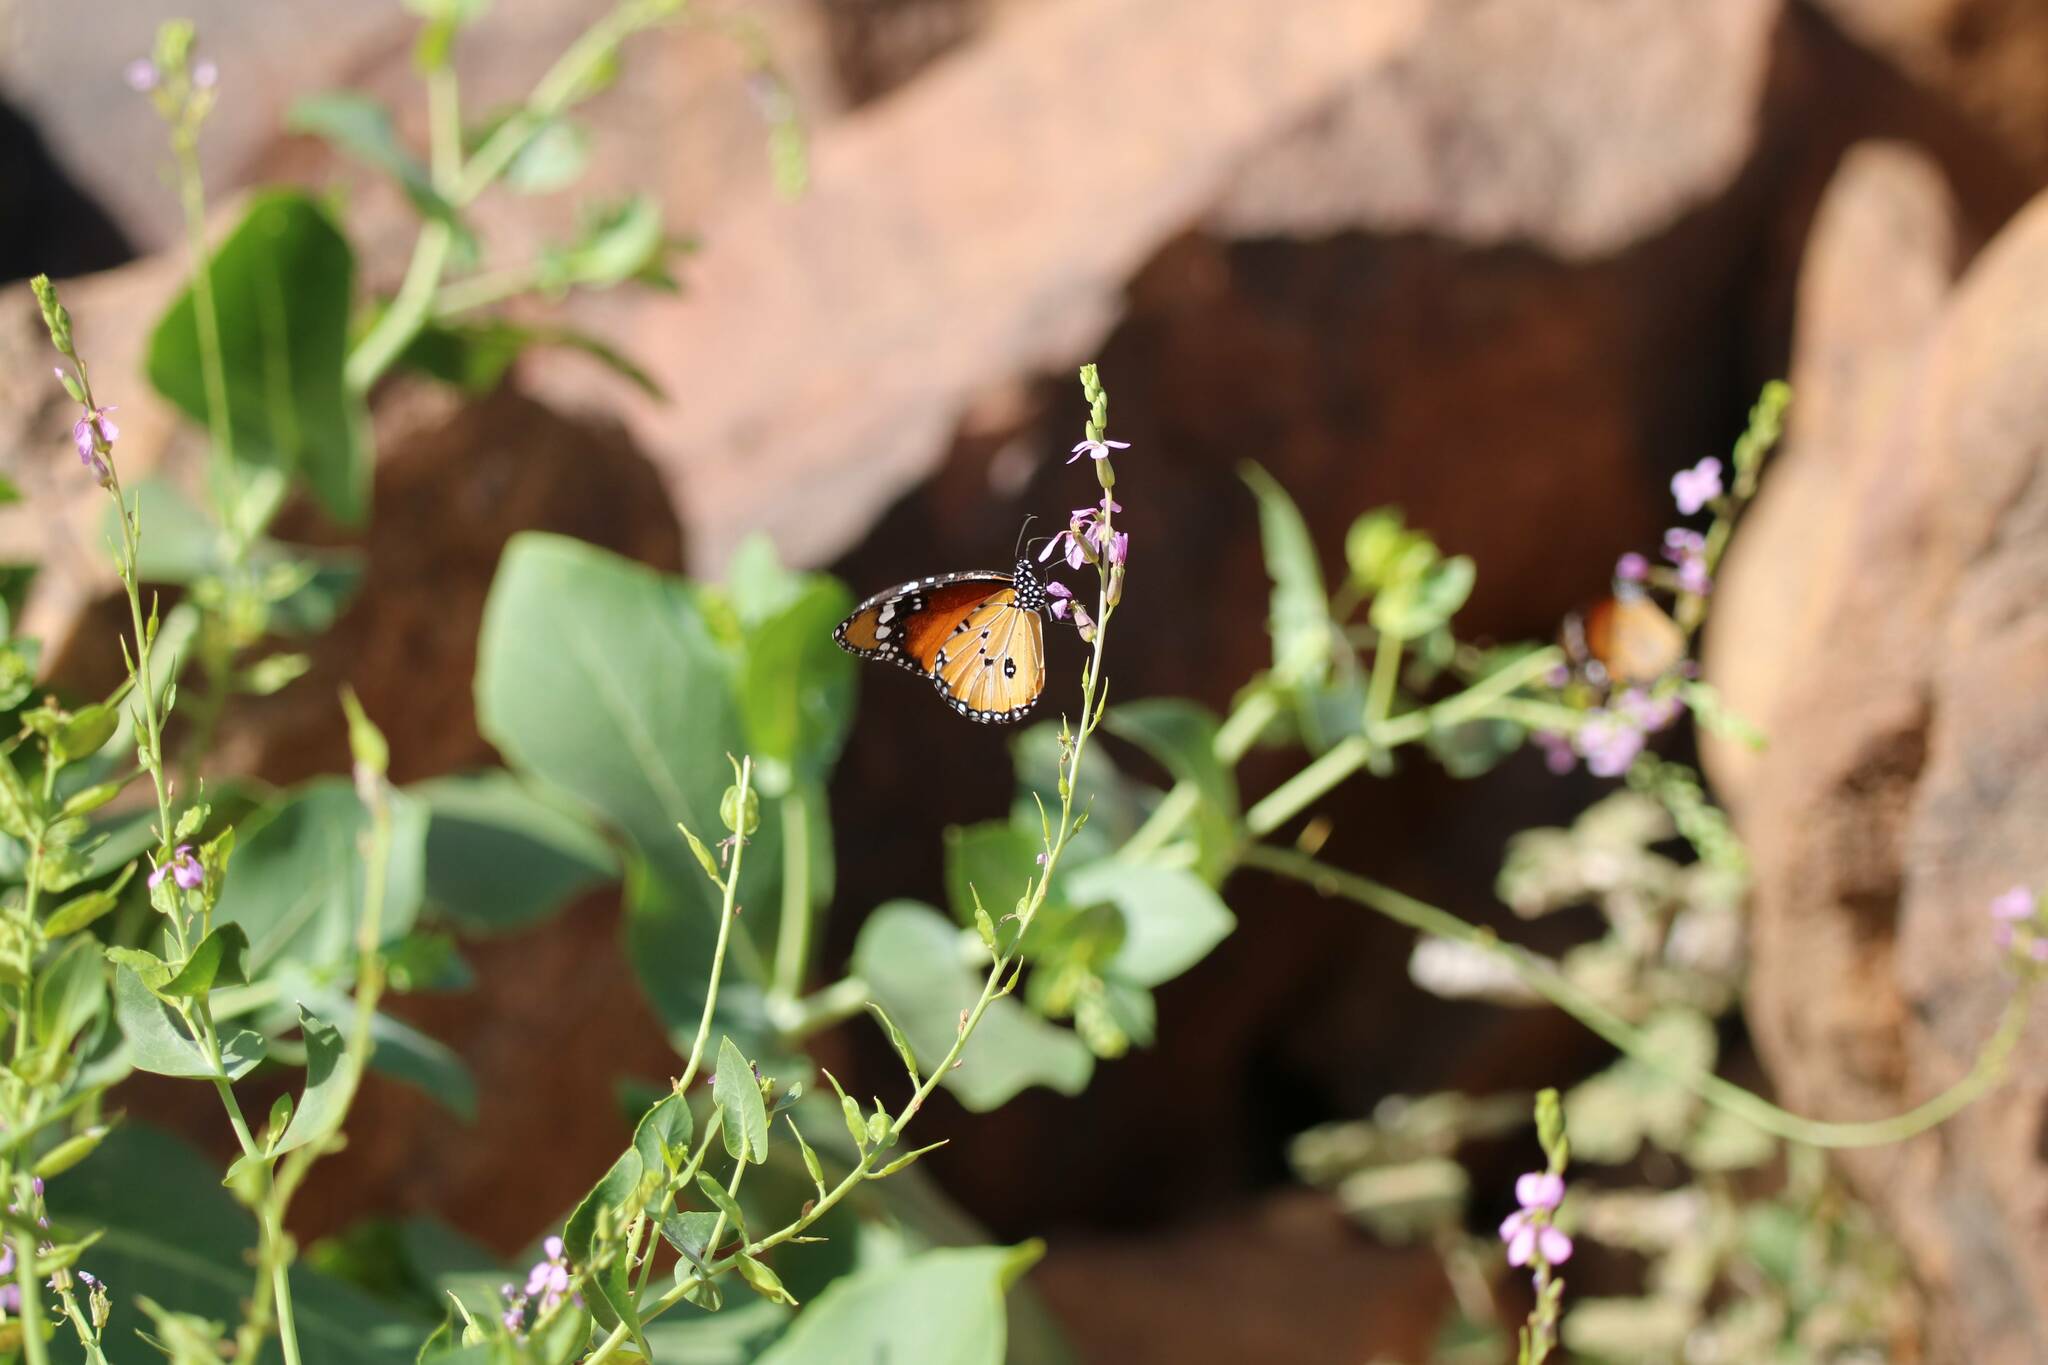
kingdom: Animalia
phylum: Arthropoda
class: Insecta
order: Lepidoptera
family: Nymphalidae
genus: Danaus
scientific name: Danaus chrysippus
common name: Plain tiger
